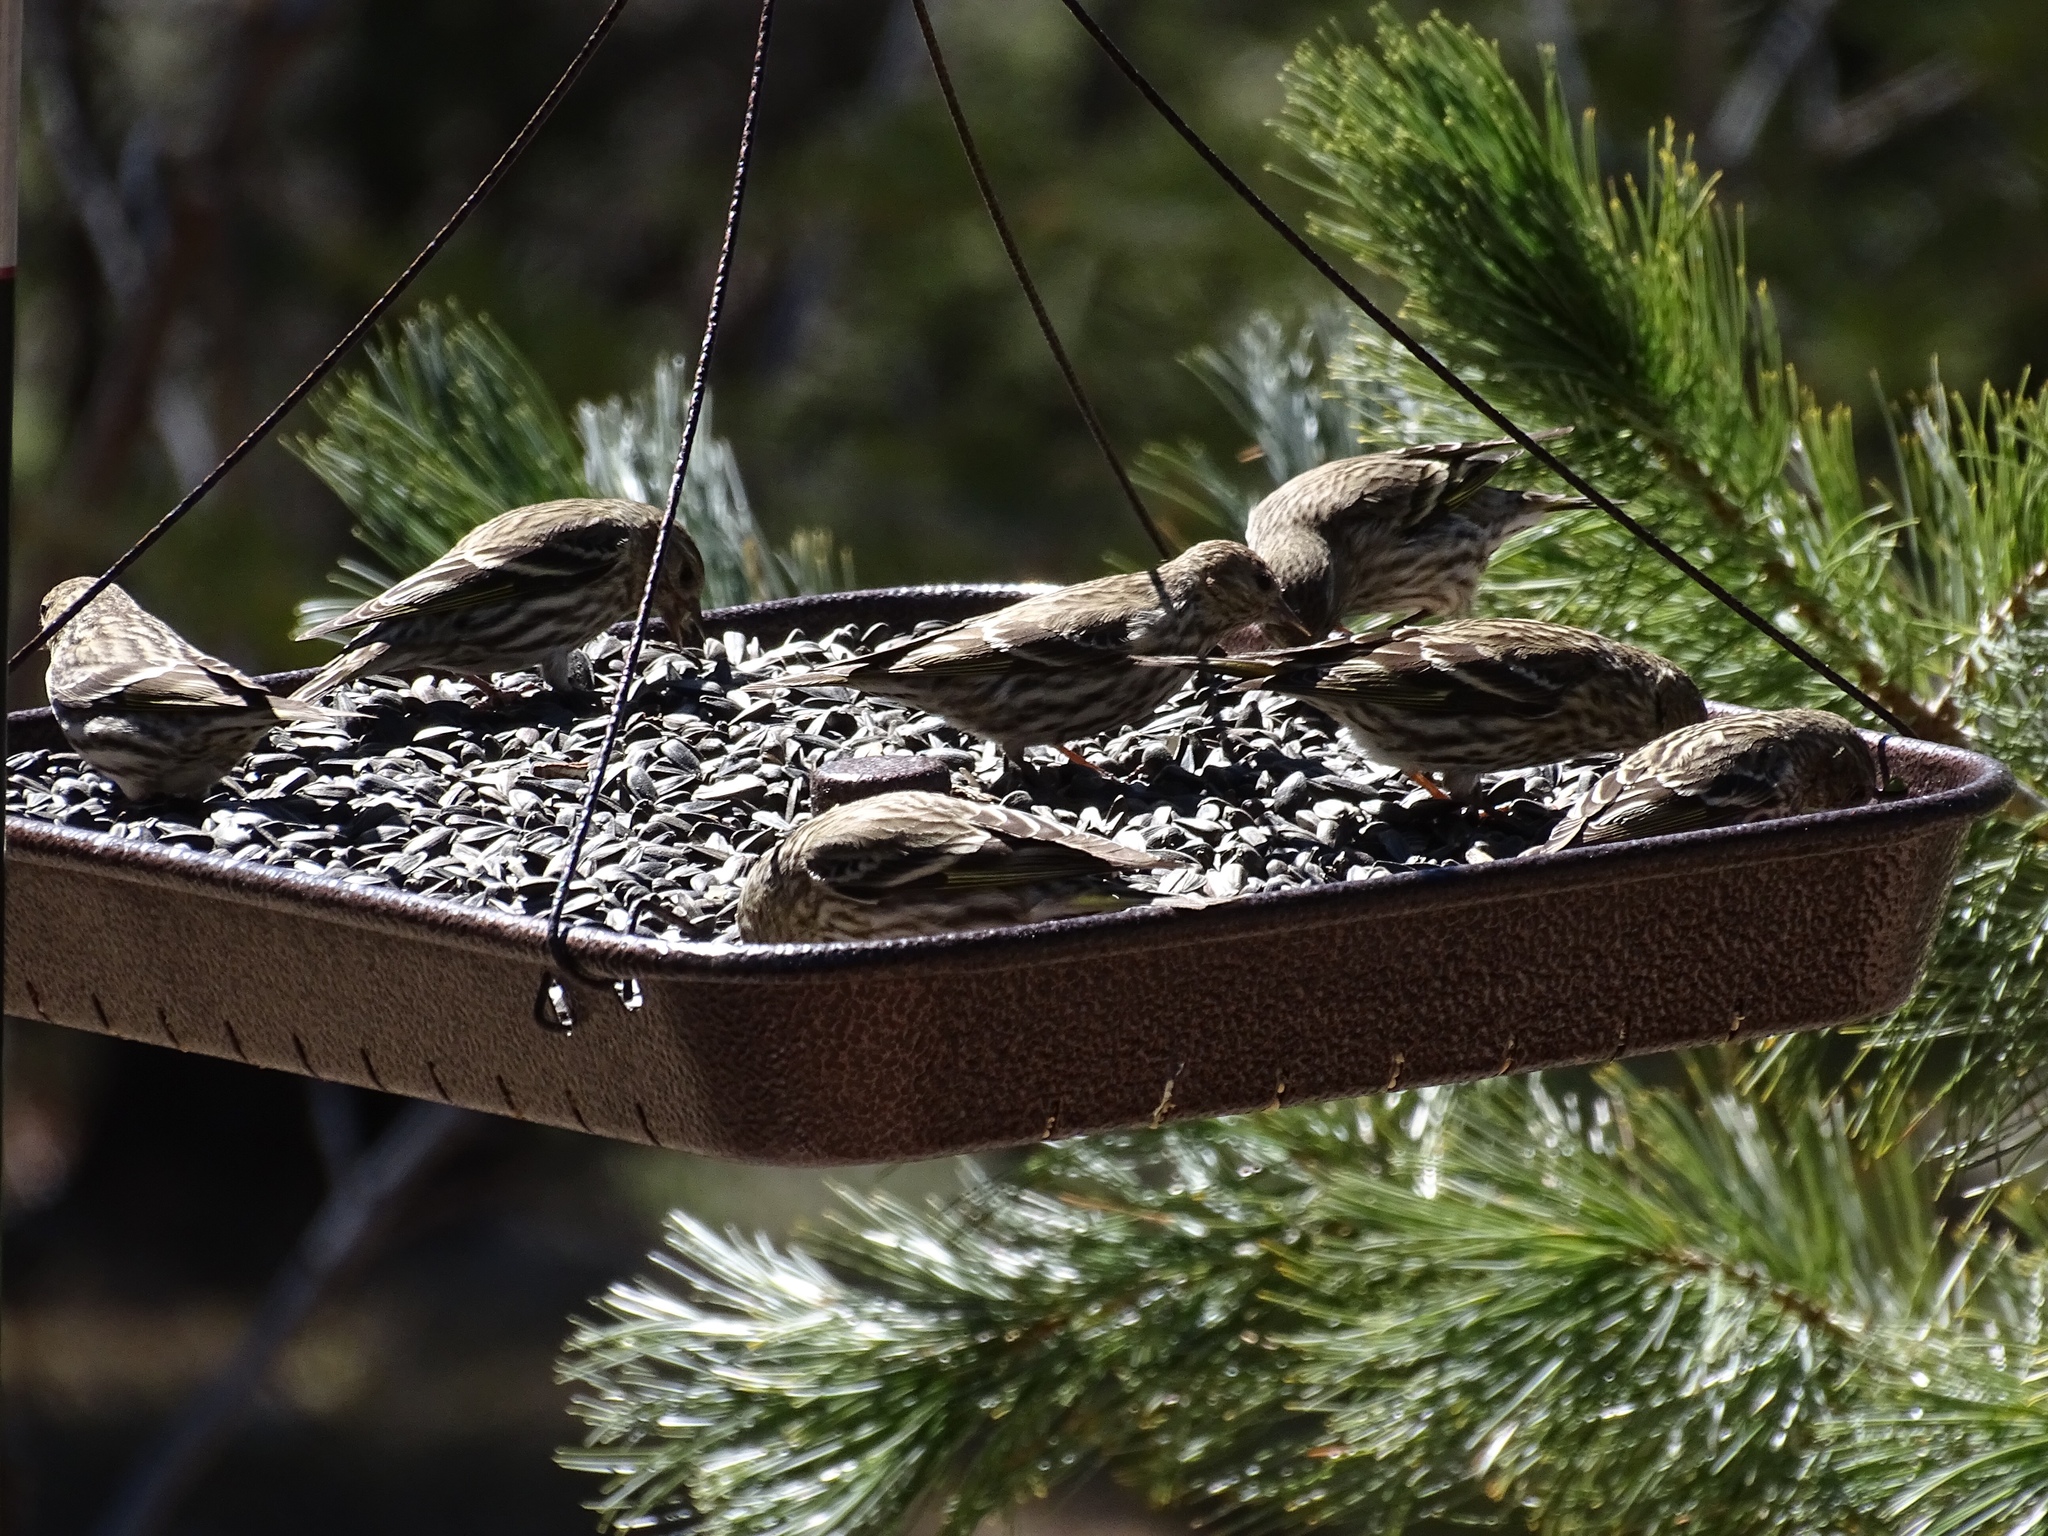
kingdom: Animalia
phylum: Chordata
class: Aves
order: Passeriformes
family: Fringillidae
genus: Spinus
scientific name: Spinus pinus
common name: Pine siskin
